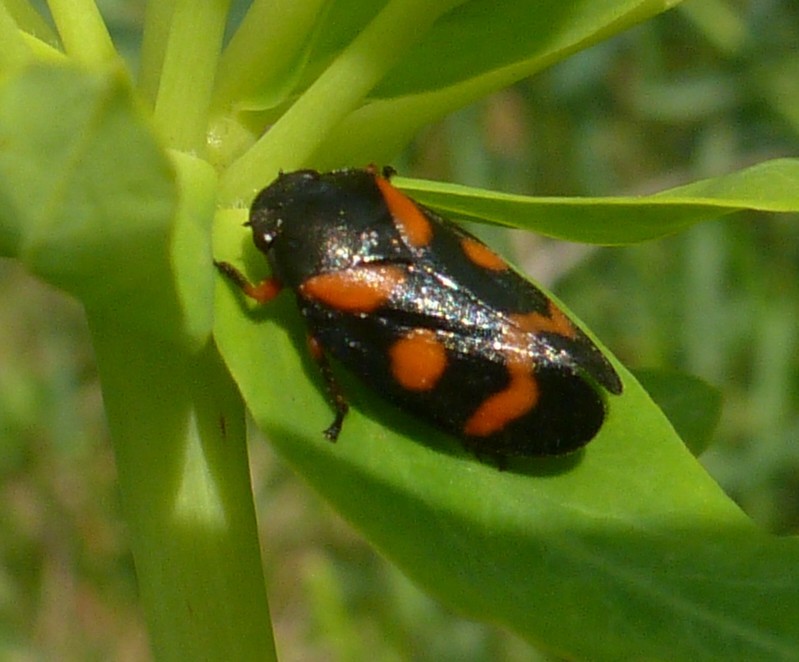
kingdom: Animalia
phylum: Arthropoda
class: Insecta
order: Hemiptera
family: Cercopidae
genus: Cercopis
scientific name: Cercopis intermedia
